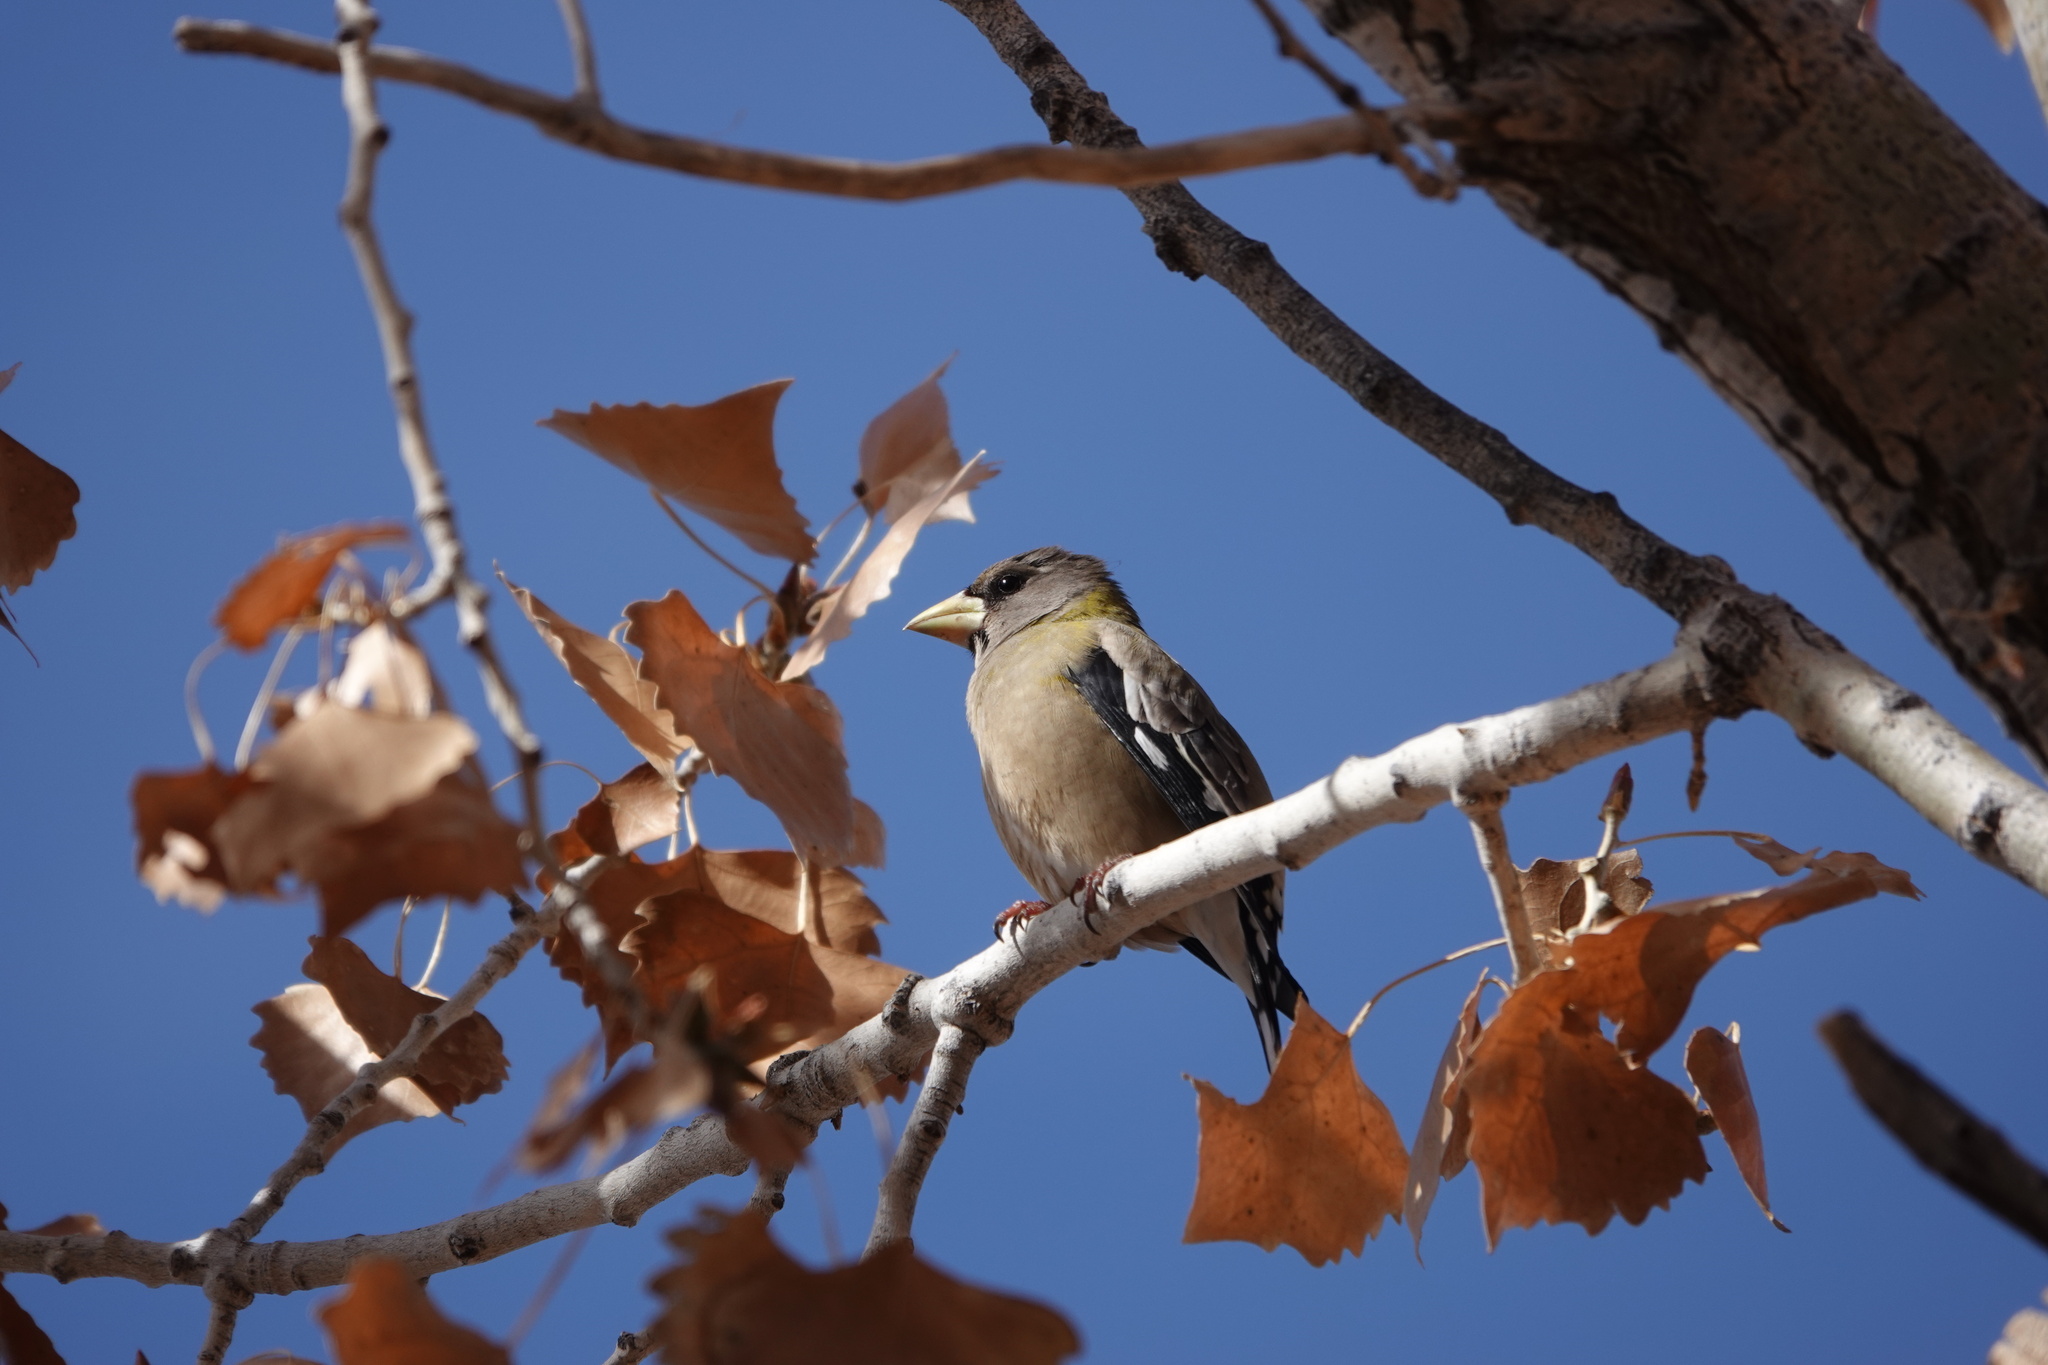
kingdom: Animalia
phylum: Chordata
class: Aves
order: Passeriformes
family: Fringillidae
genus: Hesperiphona
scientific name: Hesperiphona vespertina
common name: Evening grosbeak
